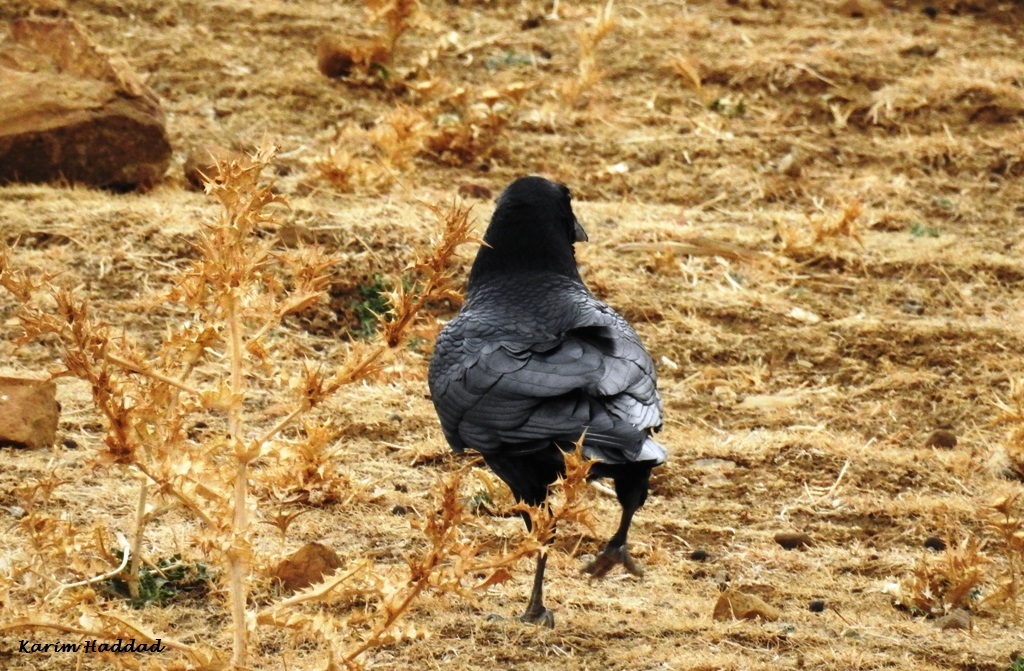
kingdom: Animalia
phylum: Chordata
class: Aves
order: Passeriformes
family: Corvidae
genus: Corvus
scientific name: Corvus corax
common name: Common raven
